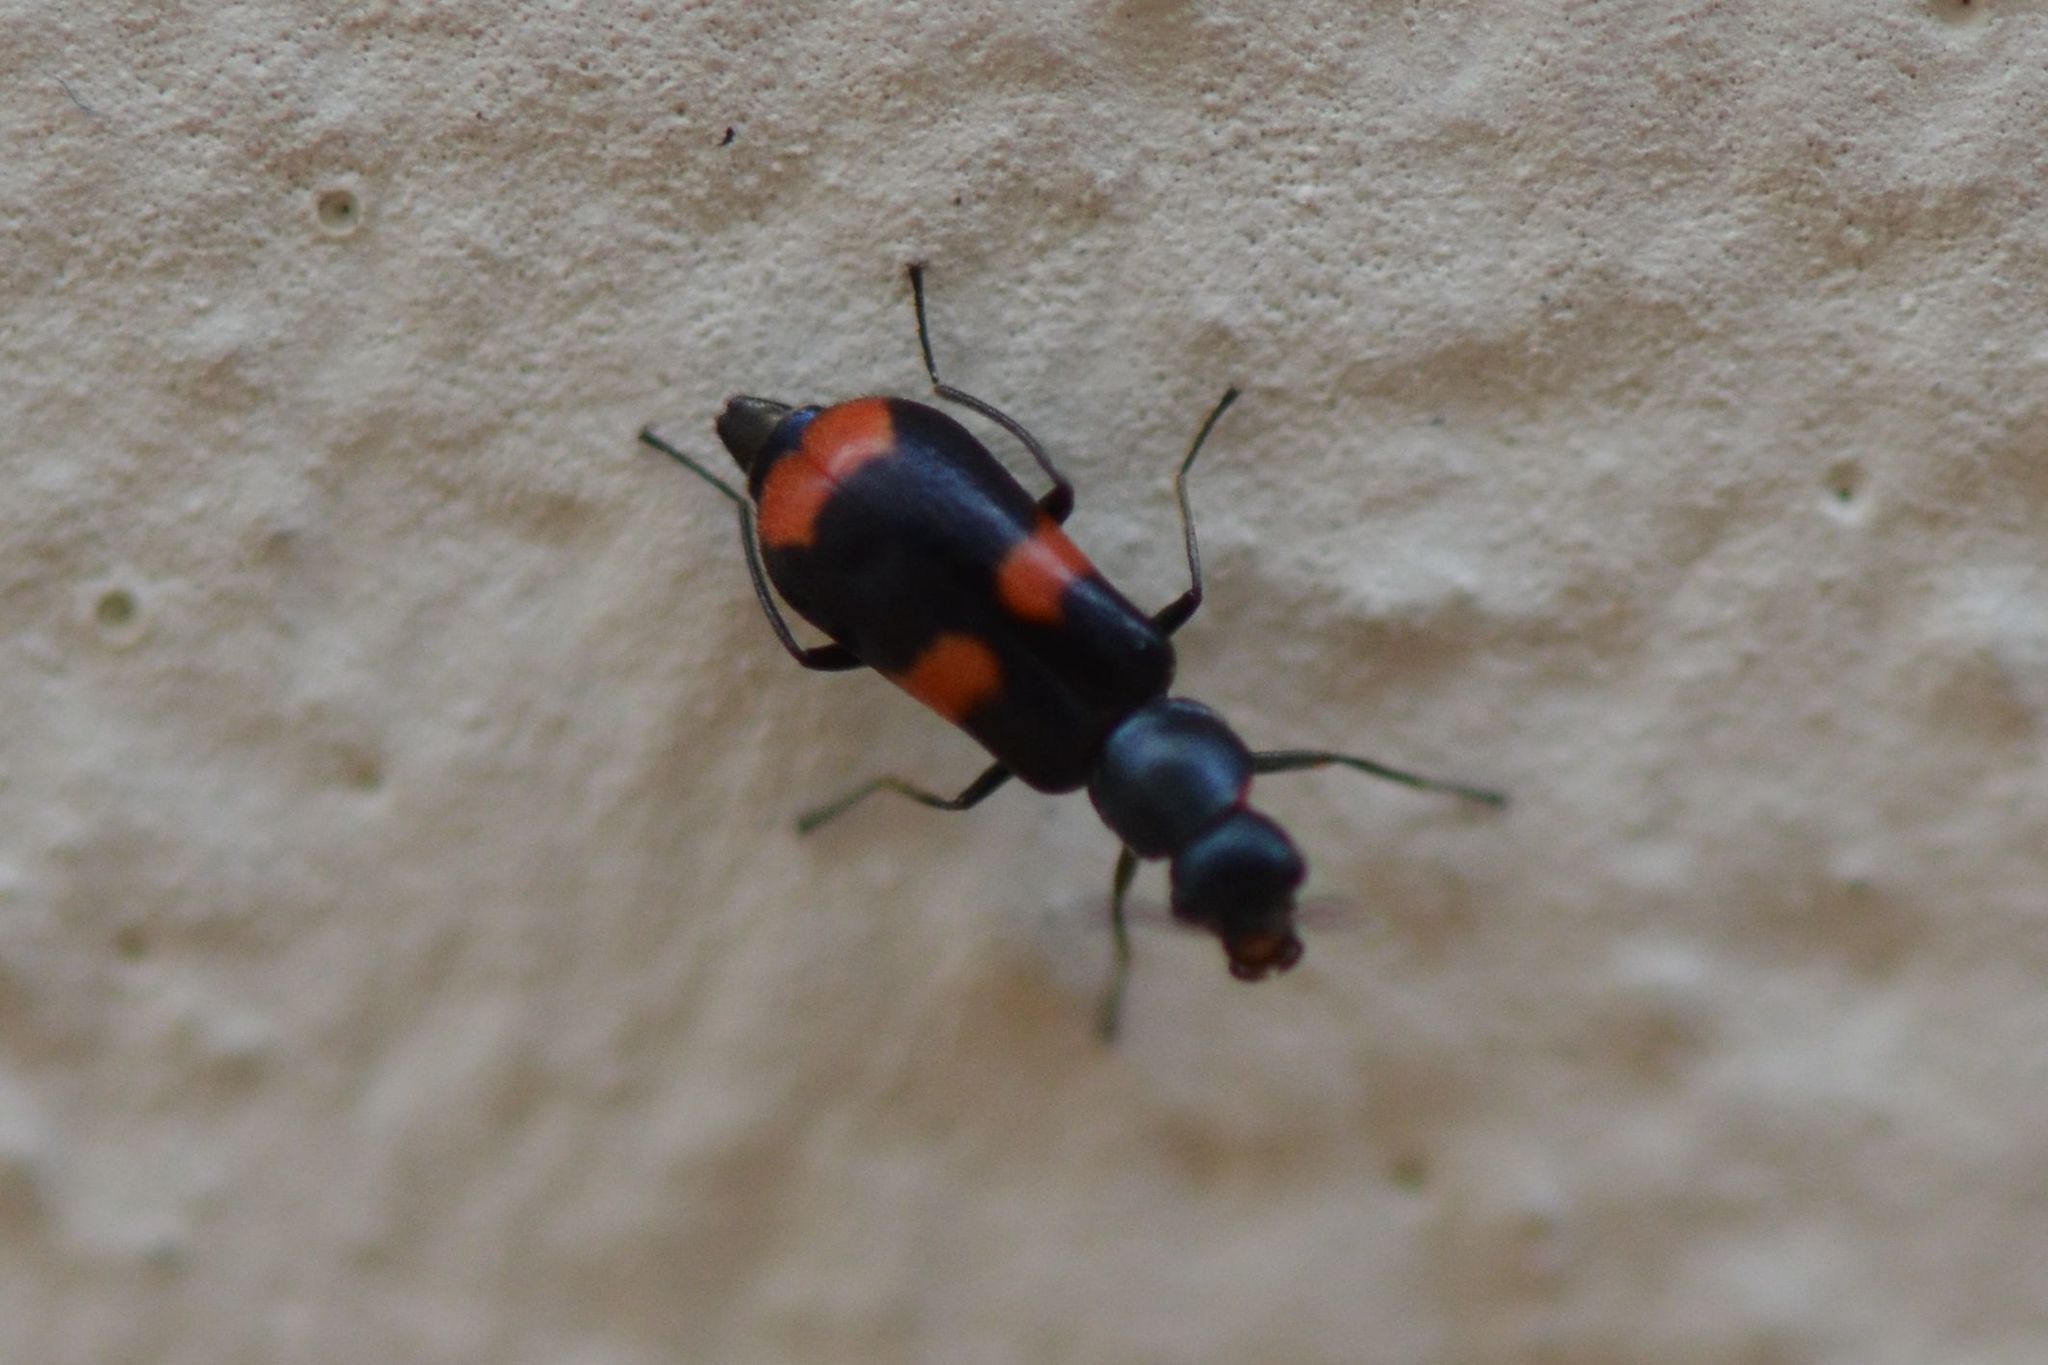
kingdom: Animalia
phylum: Arthropoda
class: Insecta
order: Coleoptera
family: Melyridae
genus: Anthocomus
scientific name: Anthocomus fasciatus
